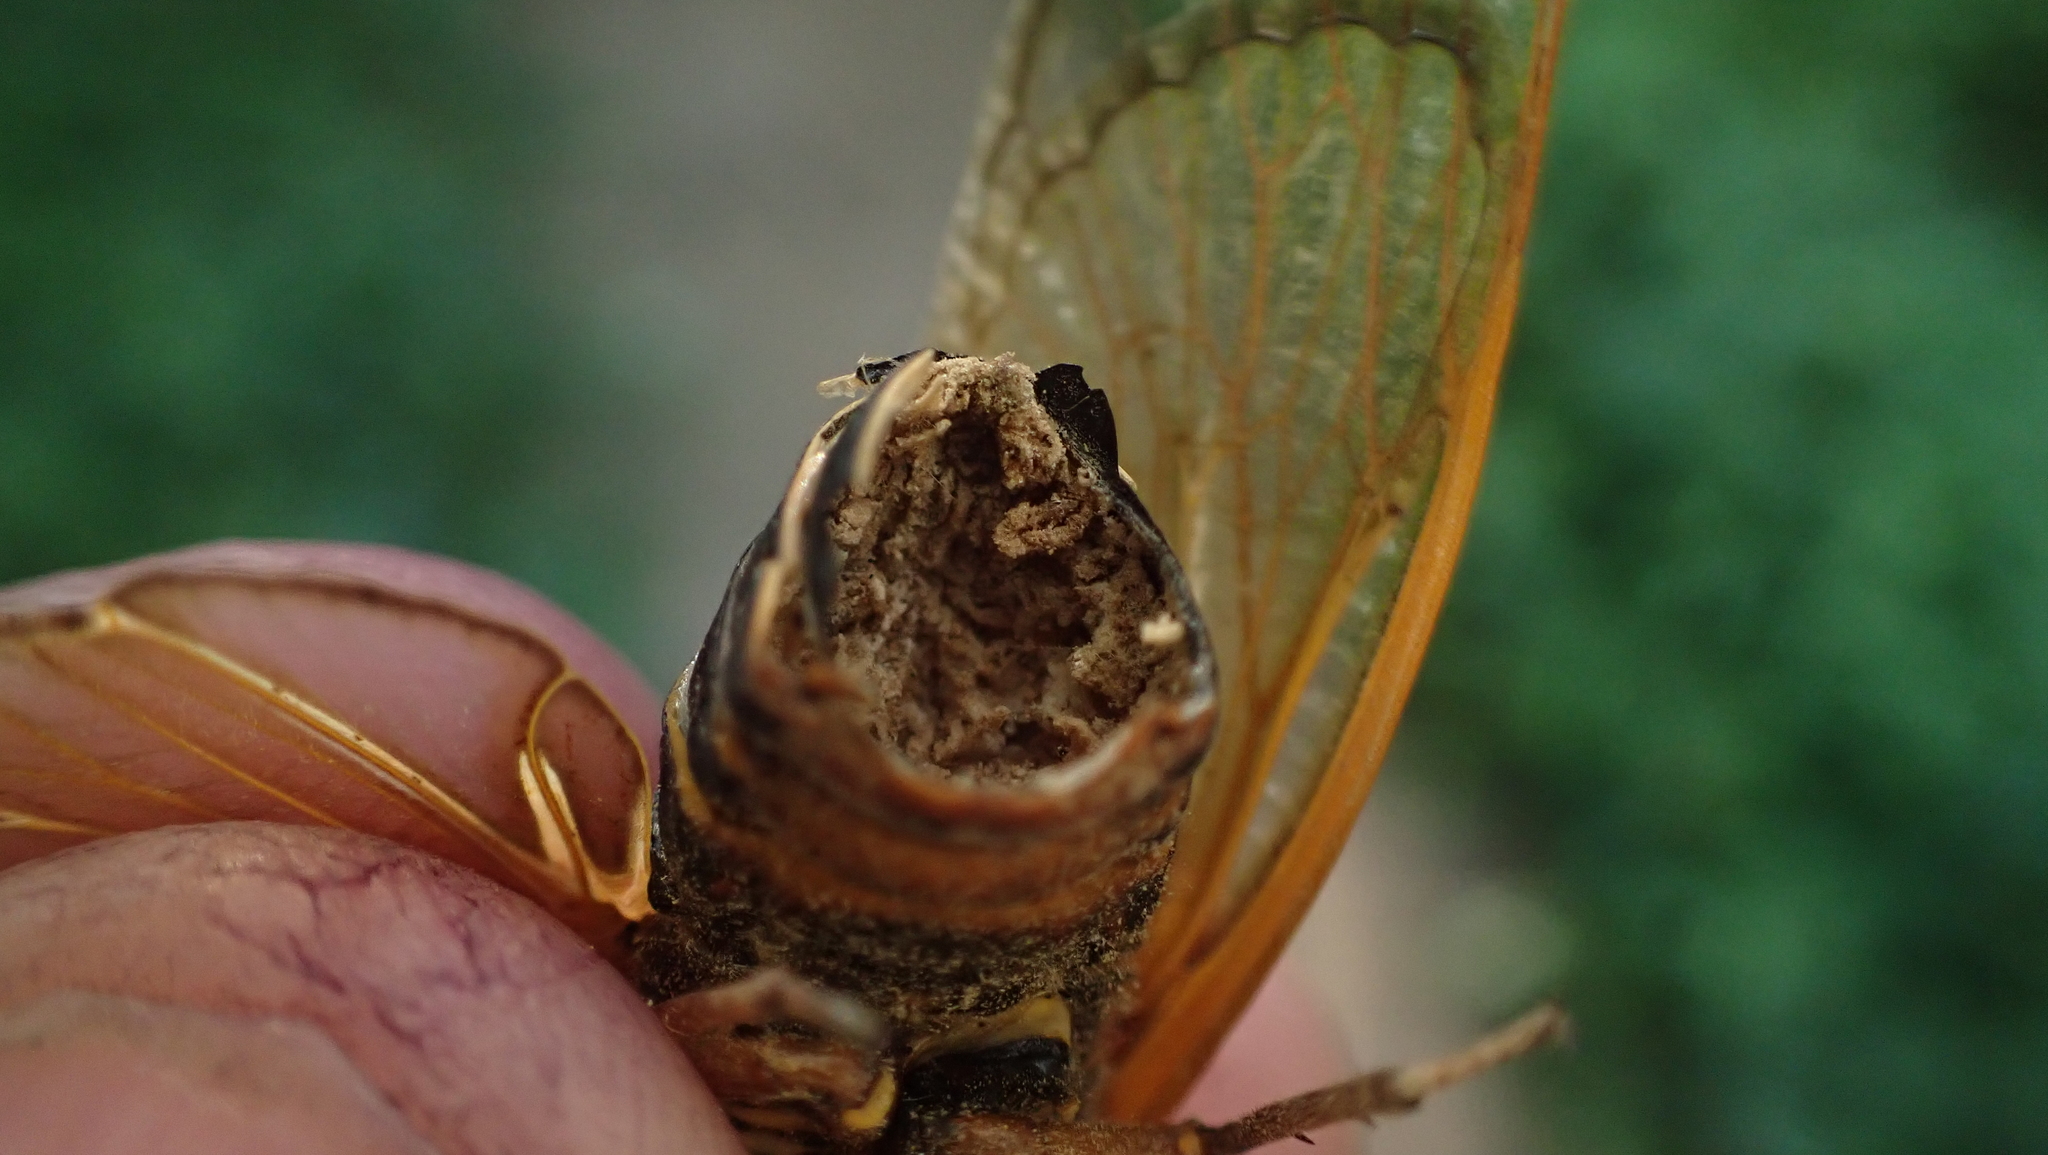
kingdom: Fungi
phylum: Entomophthoromycota
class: Entomophthoromycetes
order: Entomophthorales
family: Entomophthoraceae
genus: Massospora
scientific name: Massospora cicadina
